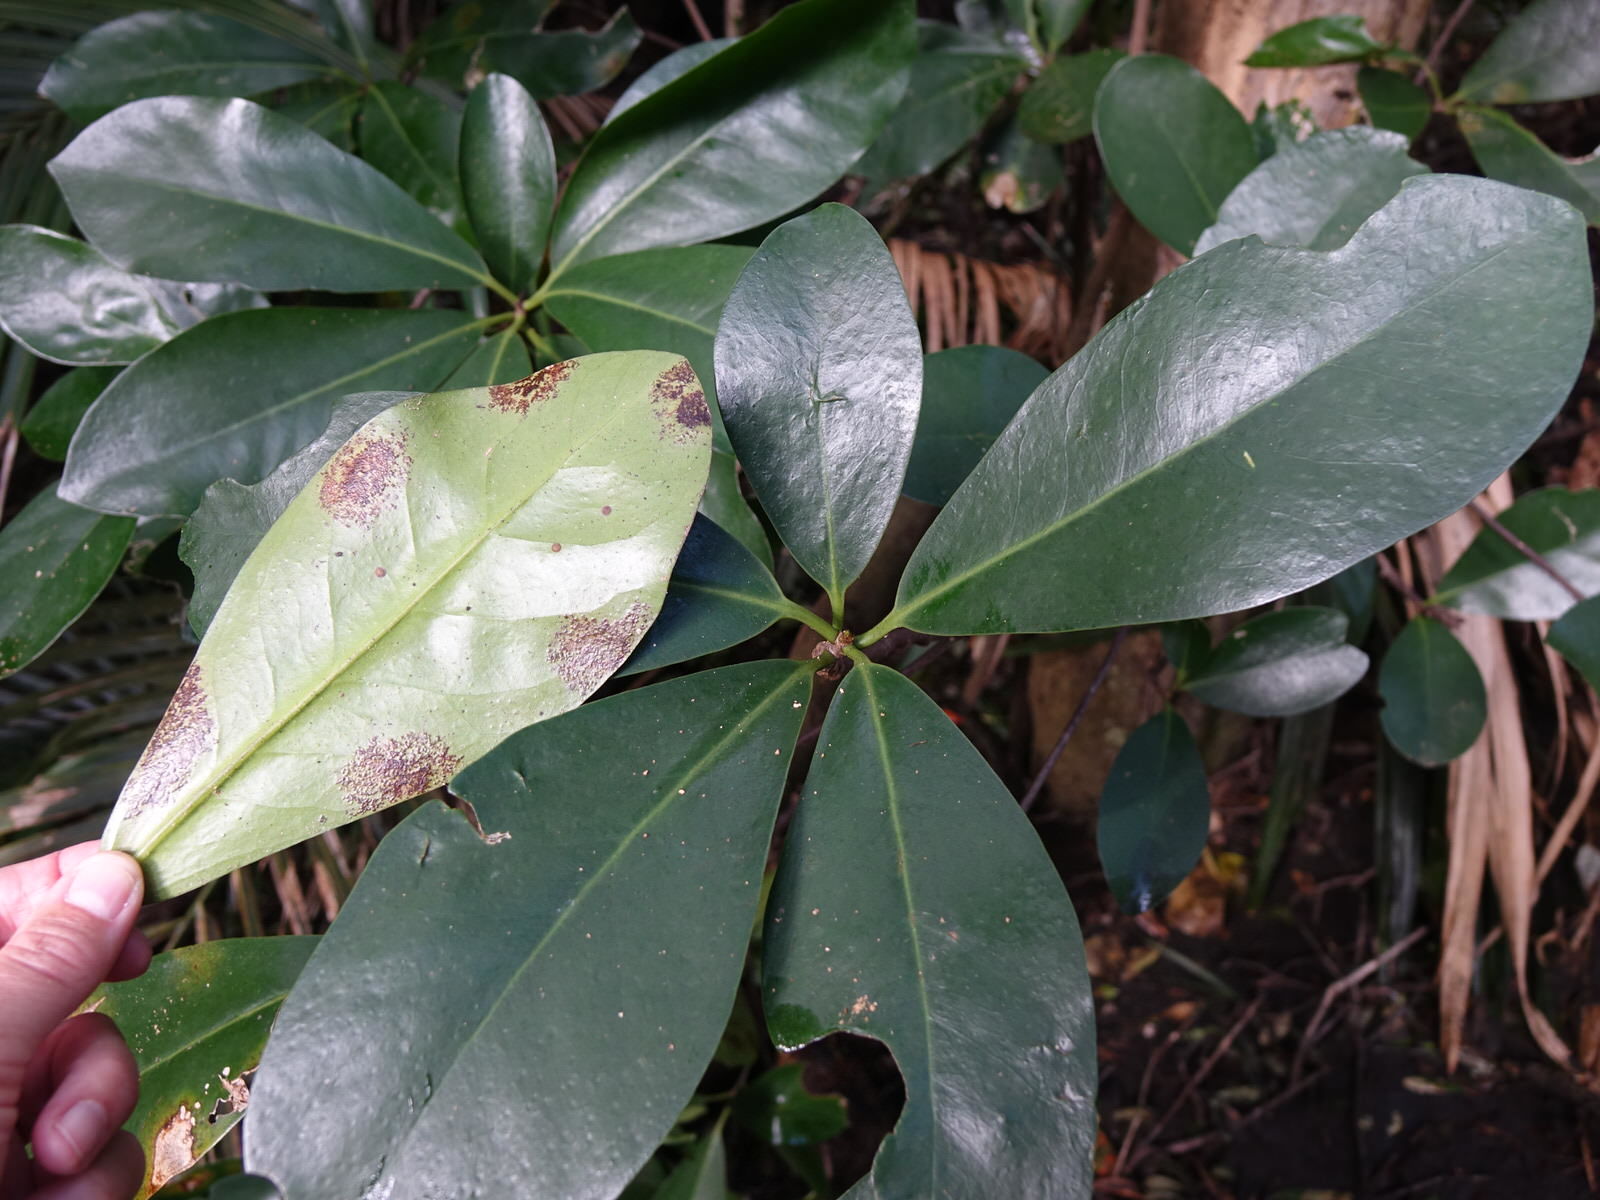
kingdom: Plantae
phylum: Tracheophyta
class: Magnoliopsida
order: Cucurbitales
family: Corynocarpaceae
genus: Corynocarpus
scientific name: Corynocarpus laevigatus
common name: New zealand laurel
